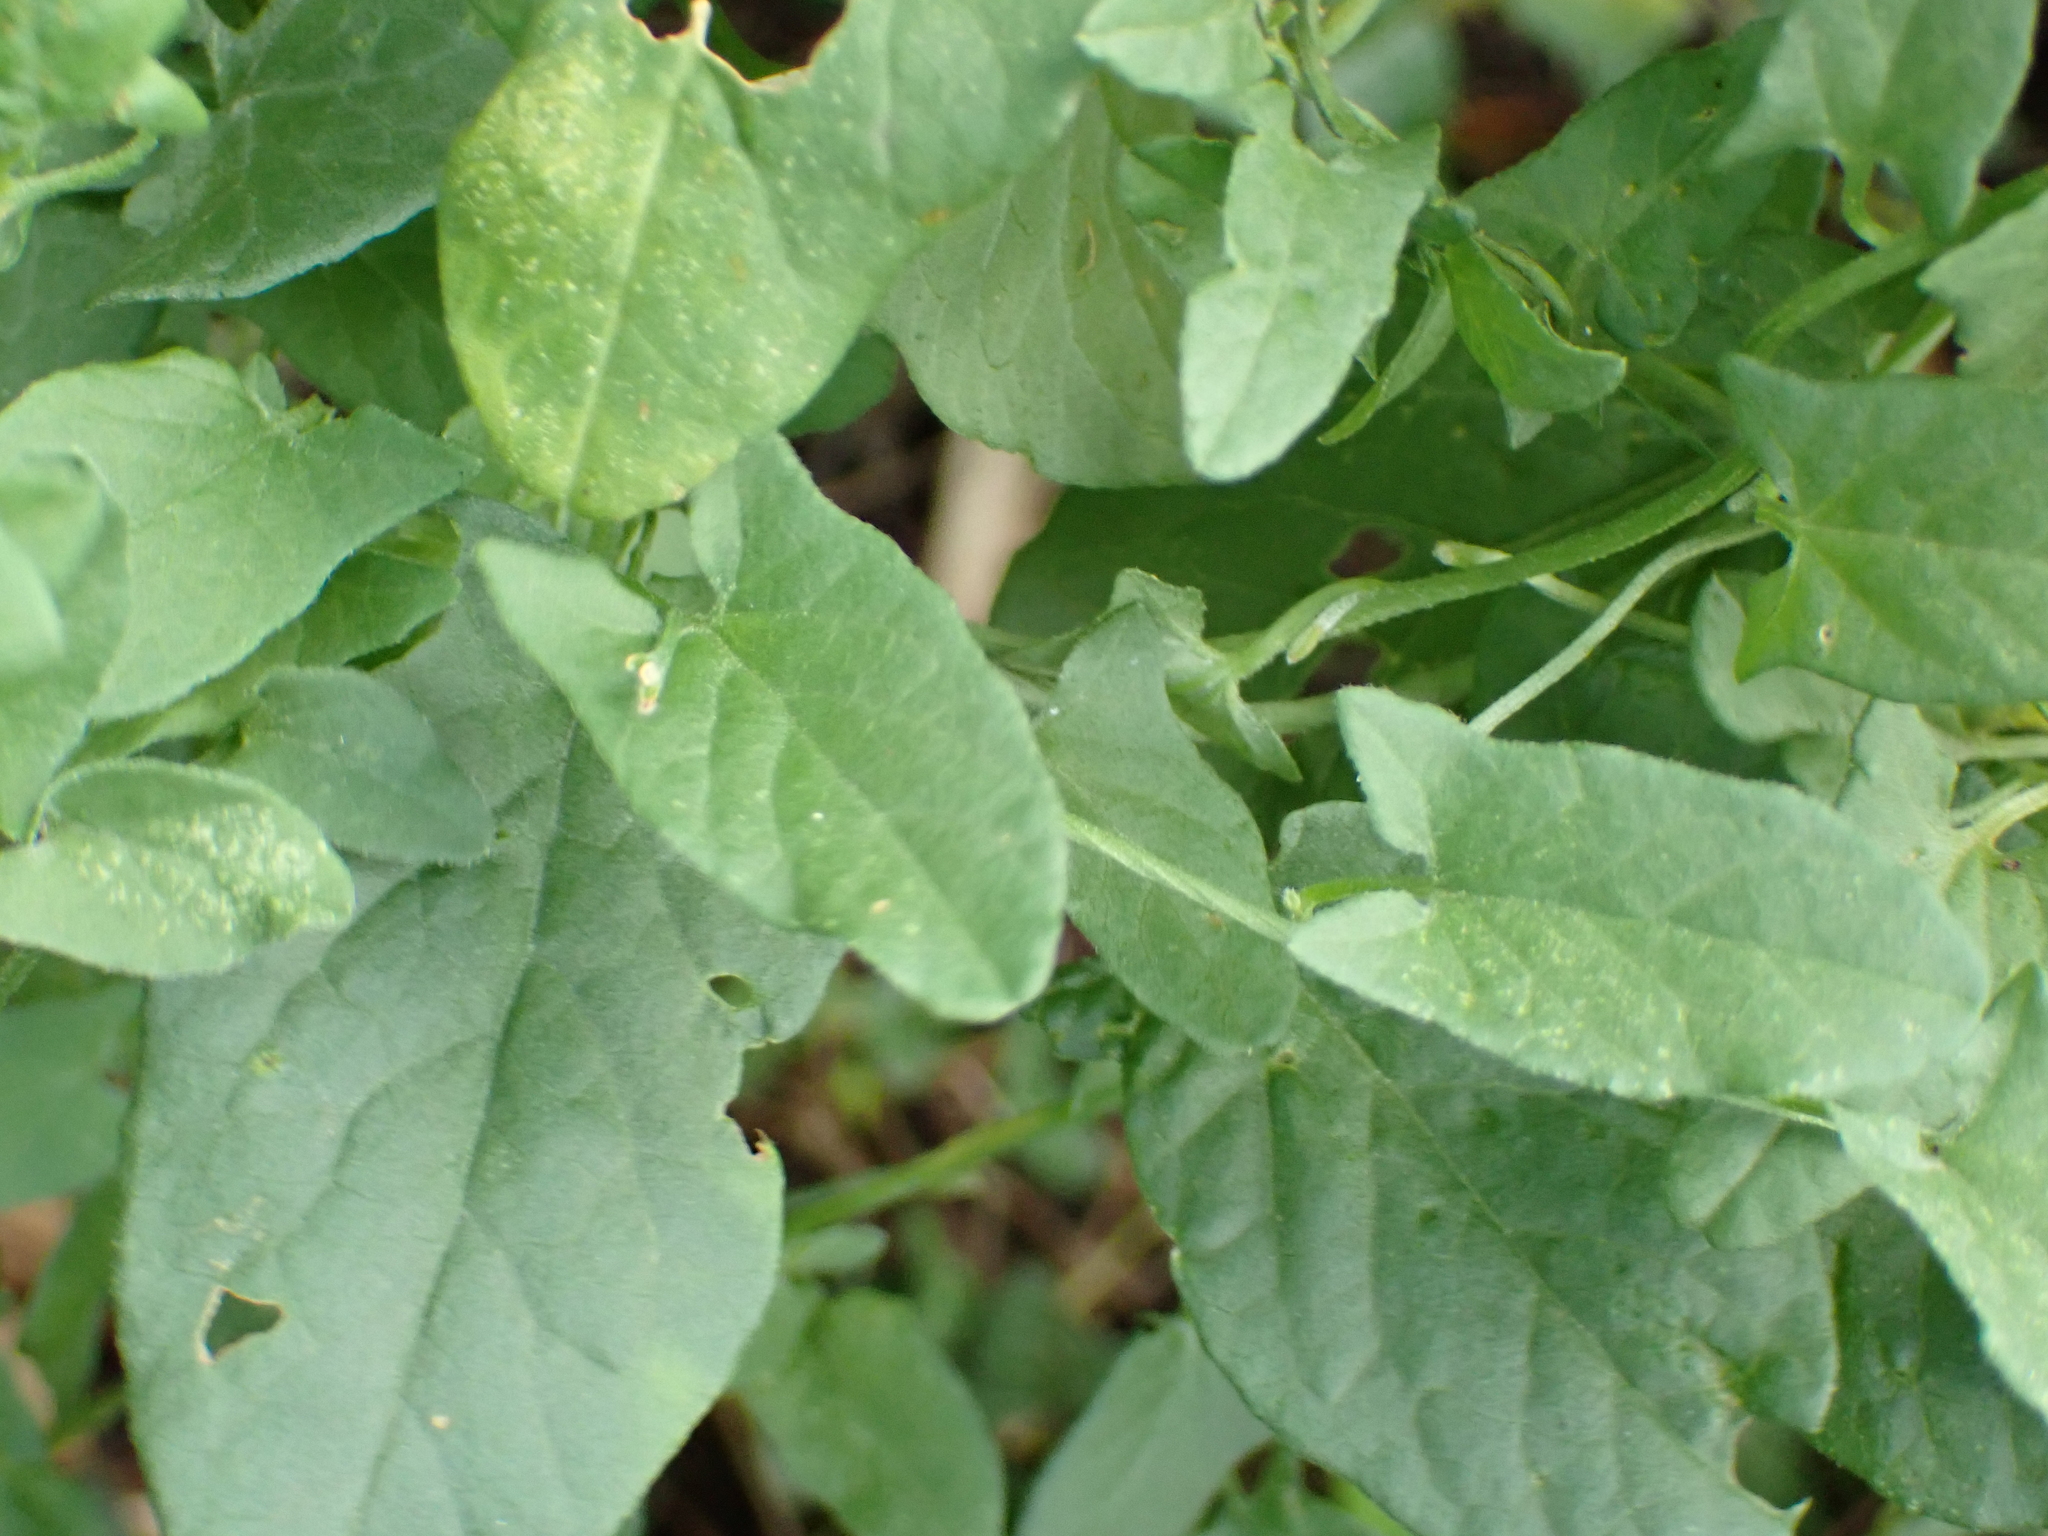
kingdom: Plantae
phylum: Tracheophyta
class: Magnoliopsida
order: Solanales
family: Convolvulaceae
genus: Convolvulus
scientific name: Convolvulus arvensis
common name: Field bindweed
